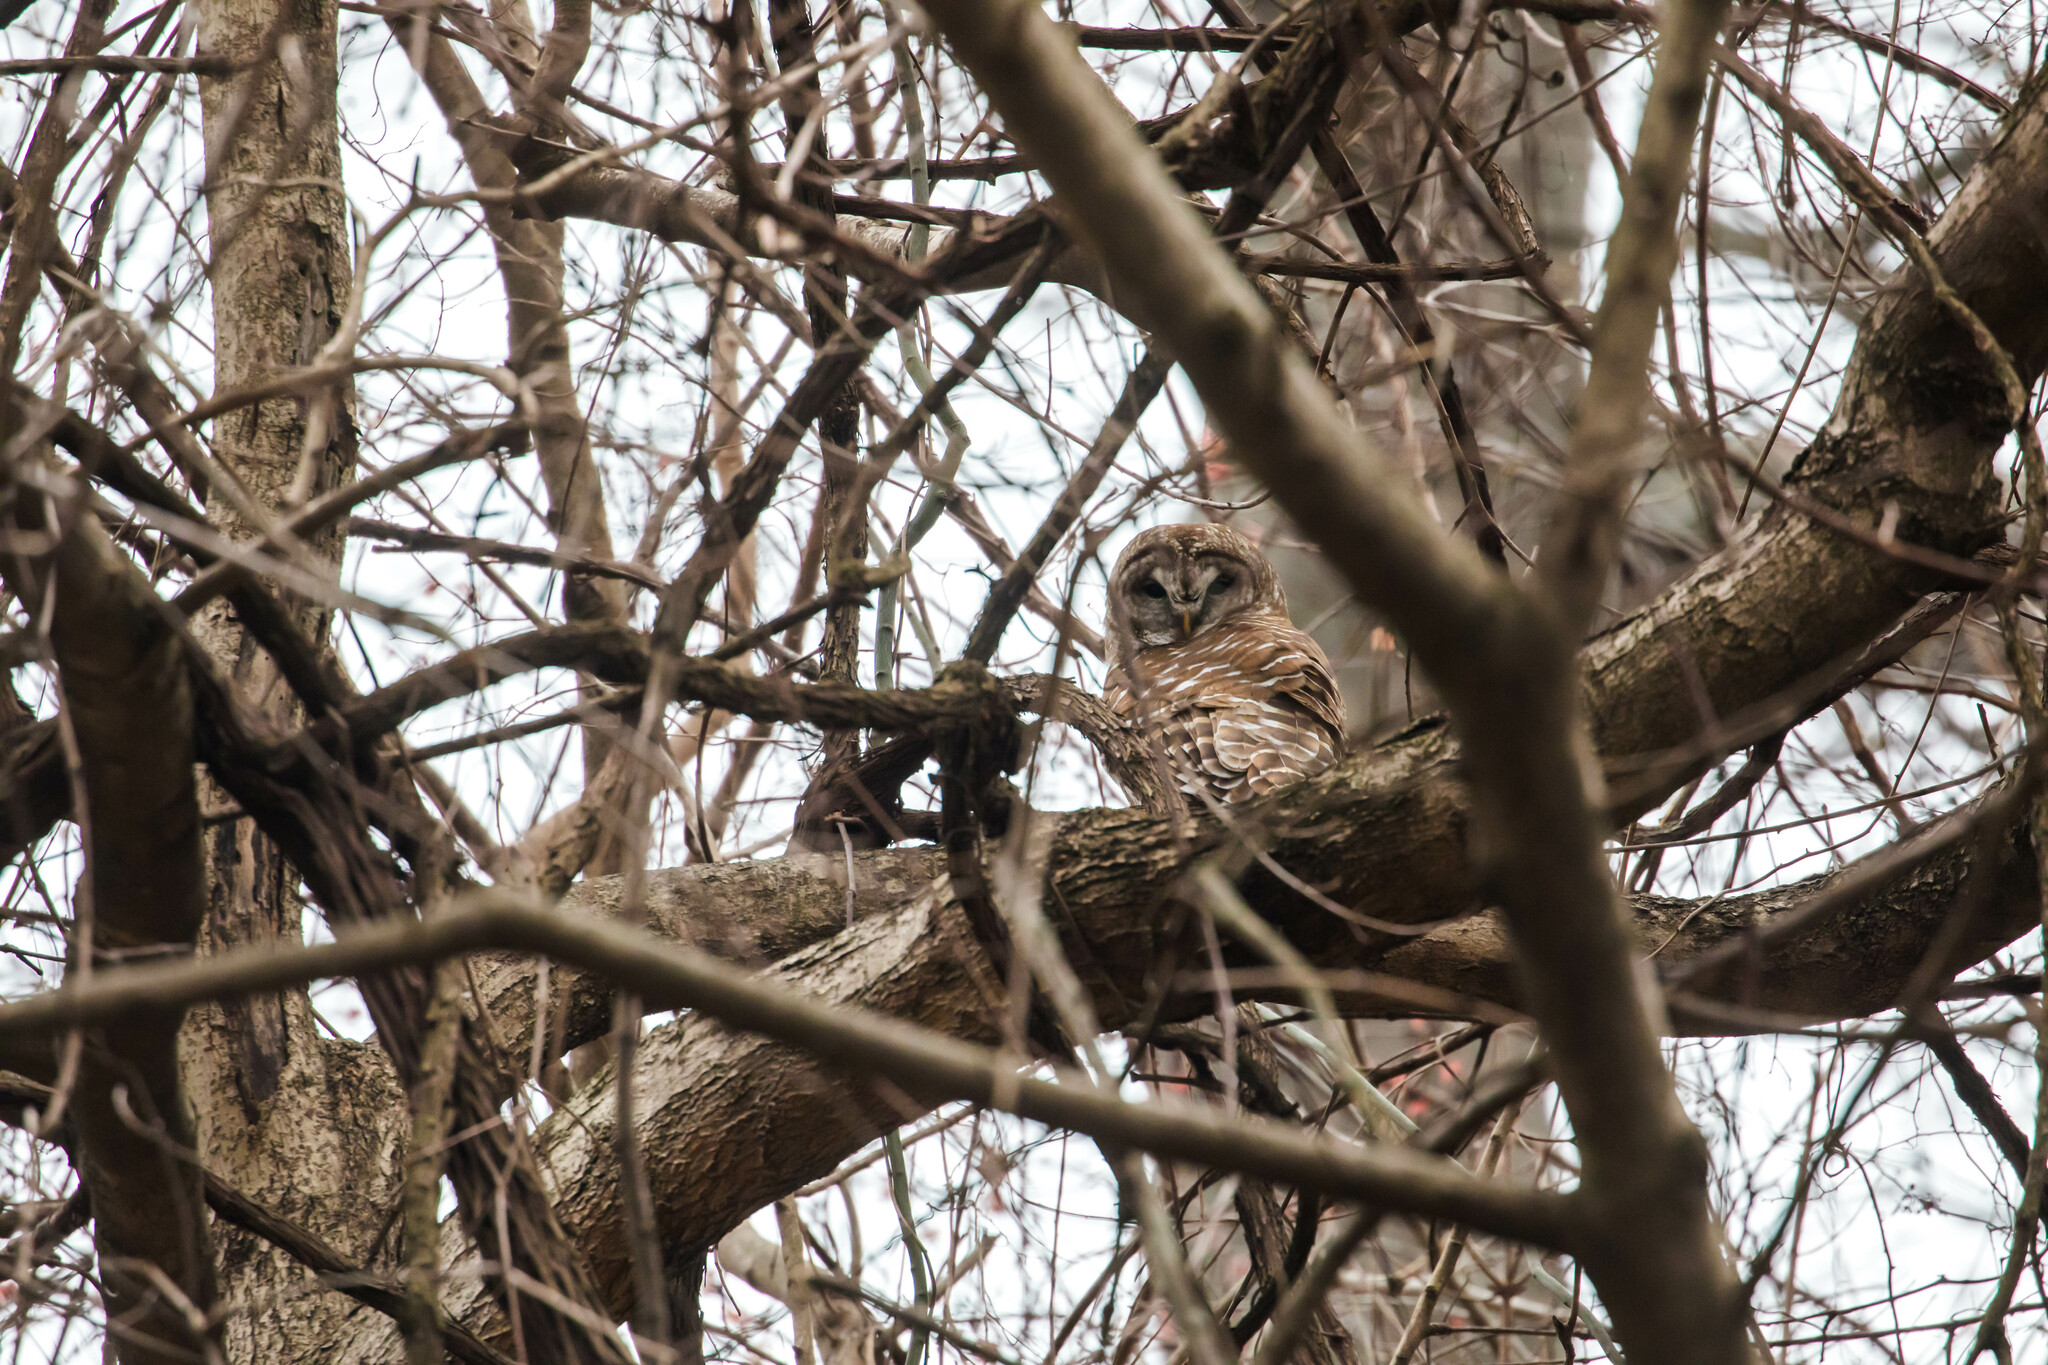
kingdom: Animalia
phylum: Chordata
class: Aves
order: Strigiformes
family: Strigidae
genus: Strix
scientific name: Strix varia
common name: Barred owl
